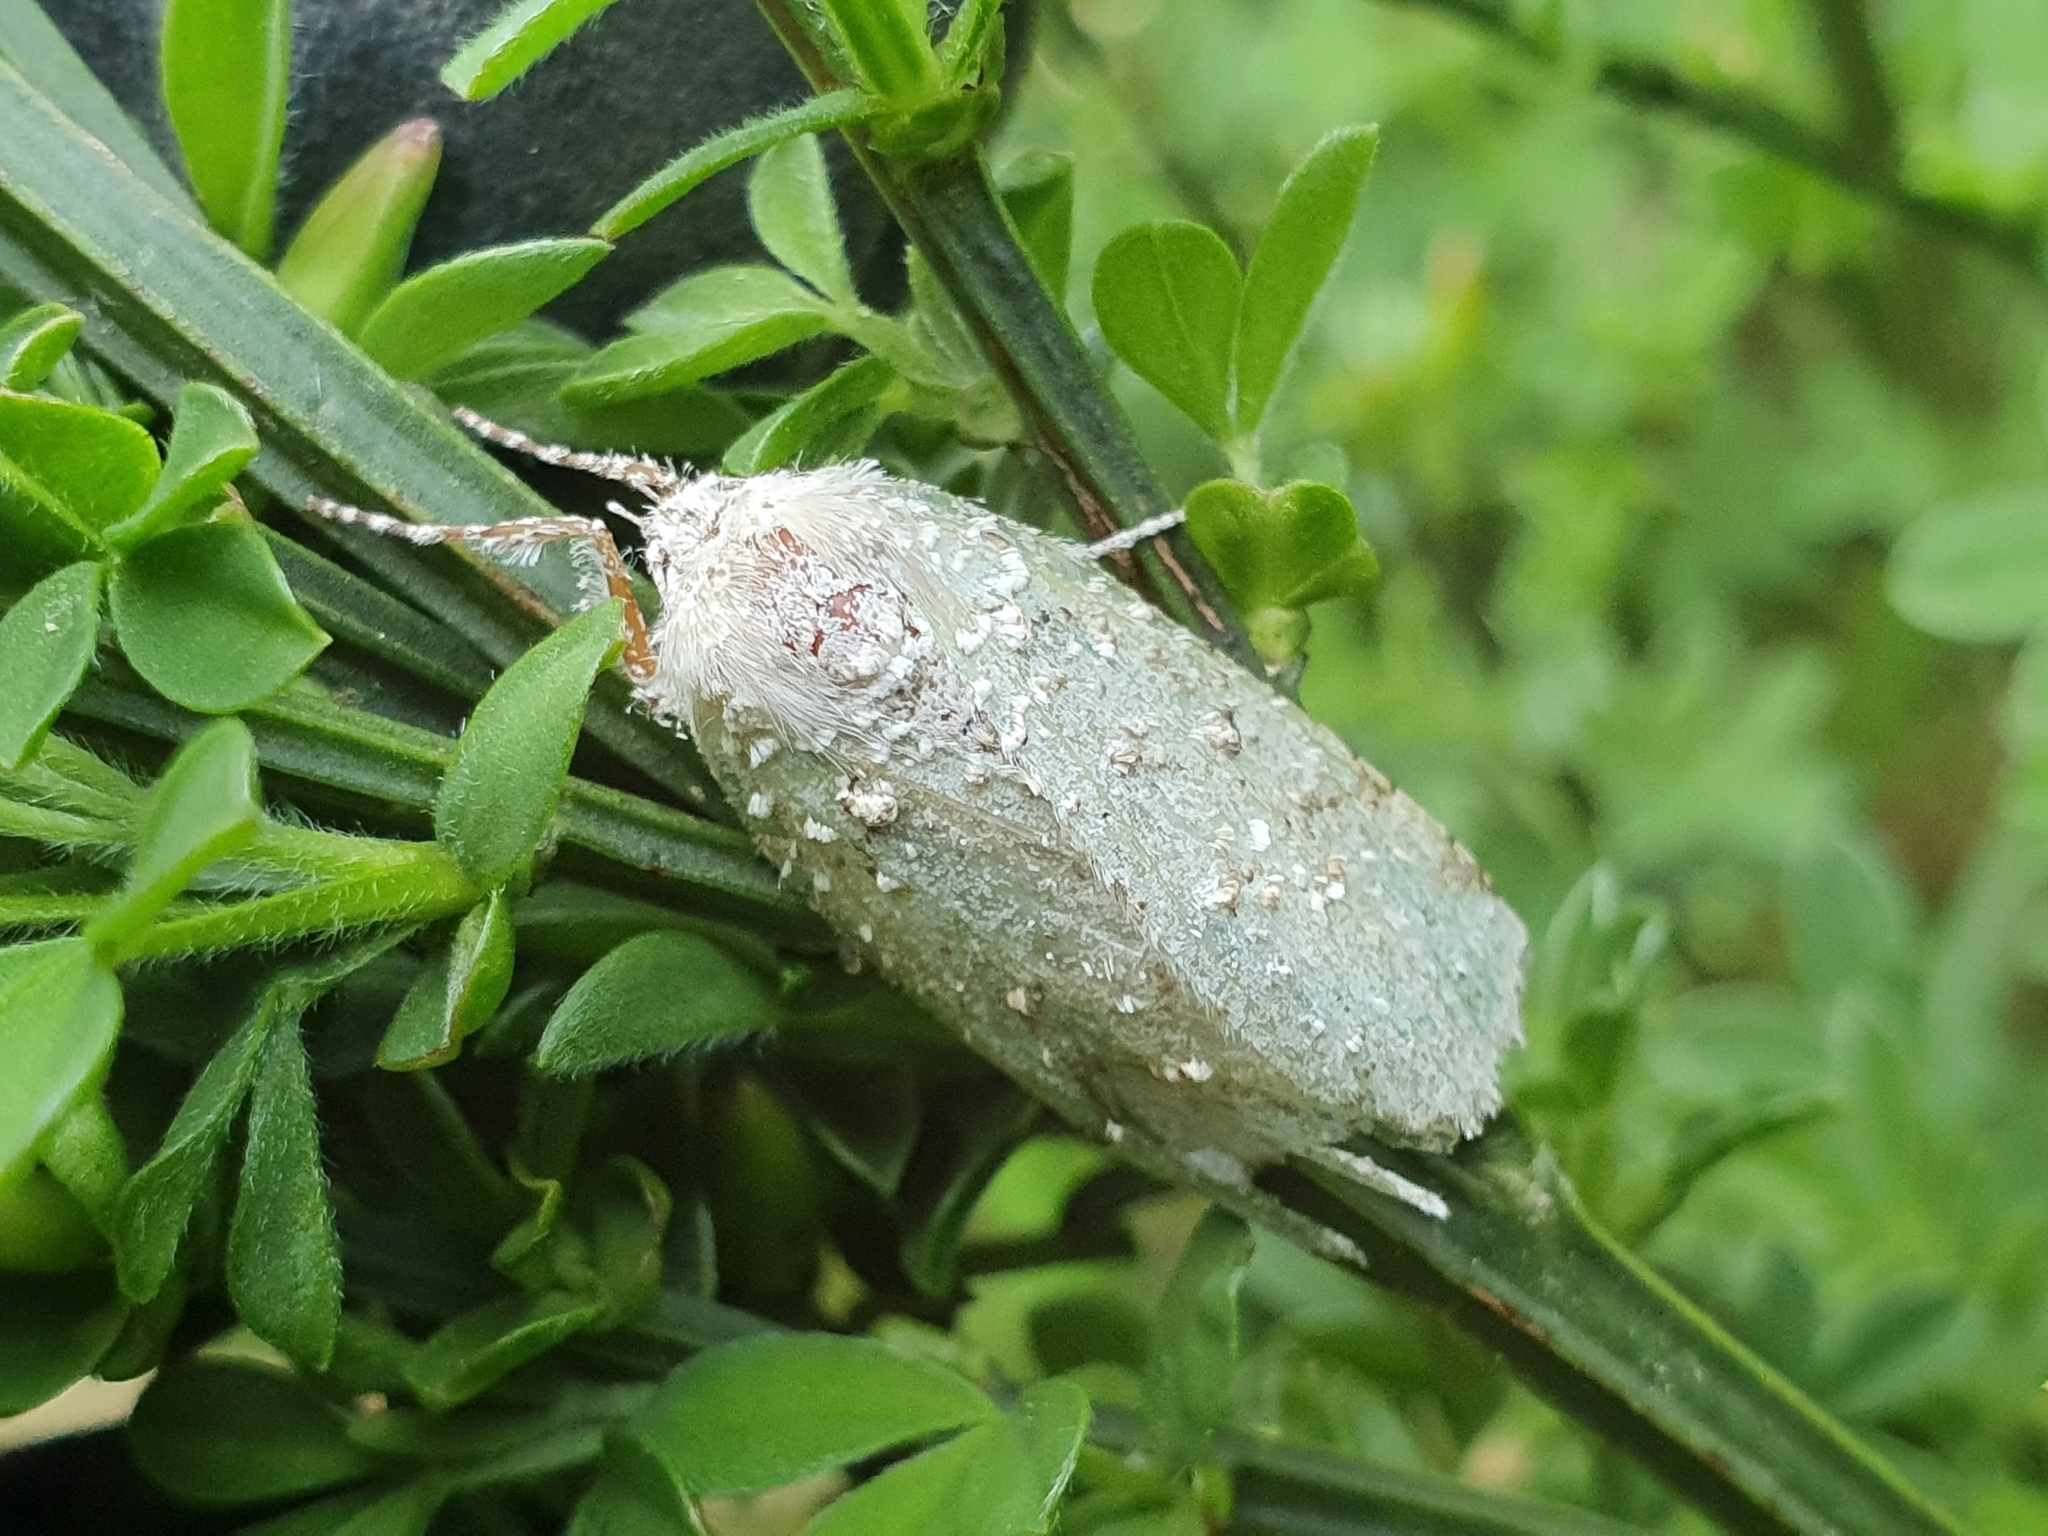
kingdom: Animalia
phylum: Arthropoda
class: Insecta
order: Lepidoptera
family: Geometridae
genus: Declana
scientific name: Declana floccosa
